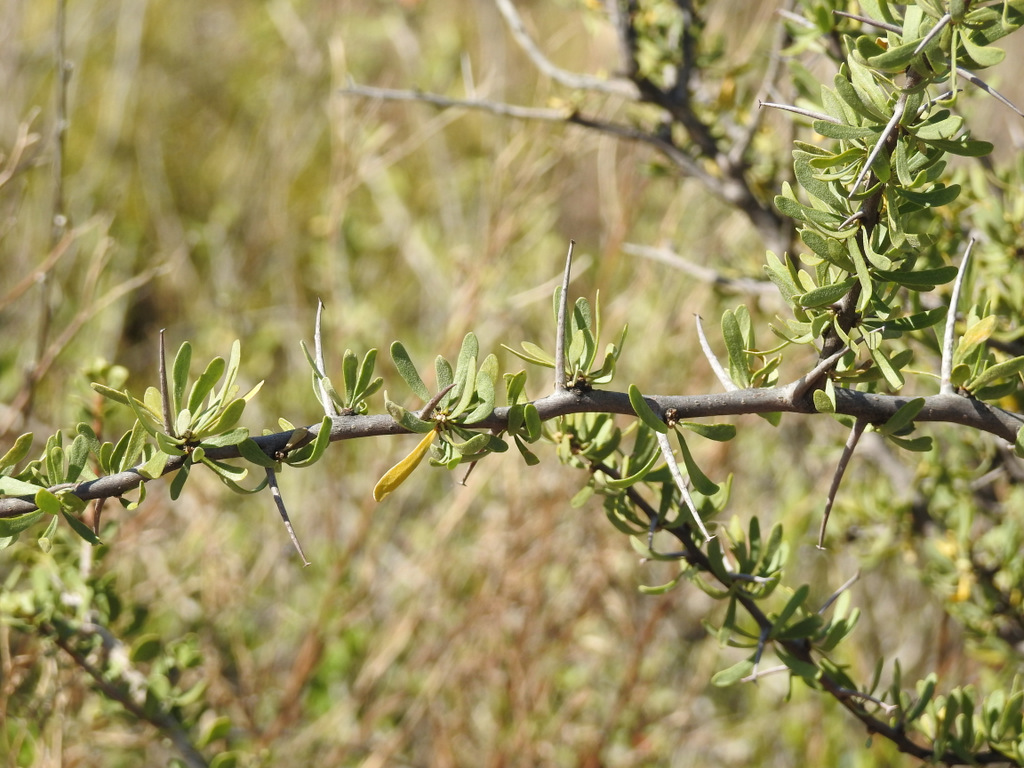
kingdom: Plantae
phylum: Tracheophyta
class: Magnoliopsida
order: Caryophyllales
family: Nyctaginaceae
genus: Bougainvillea
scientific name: Bougainvillea spinosa
